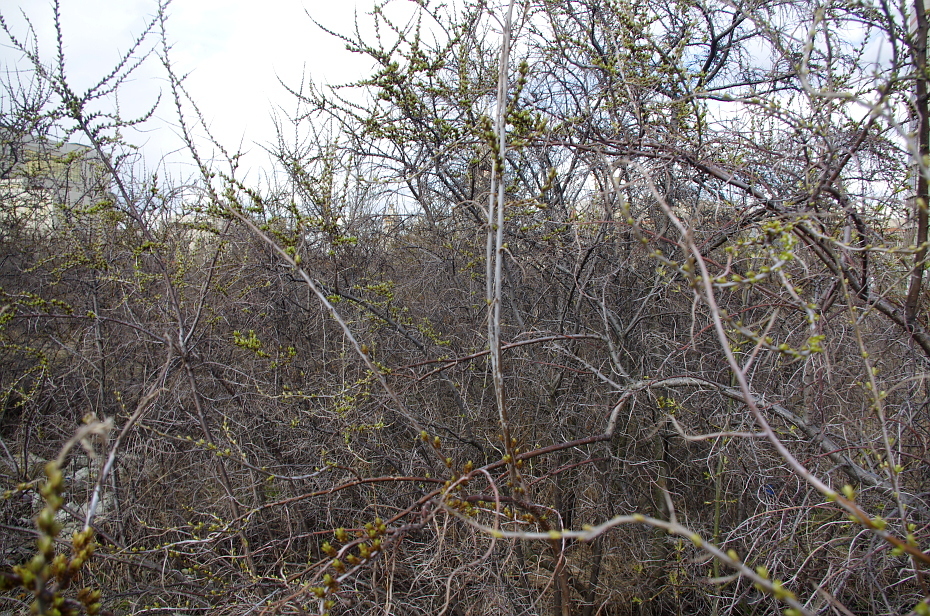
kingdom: Plantae
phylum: Tracheophyta
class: Magnoliopsida
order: Rosales
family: Elaeagnaceae
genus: Hippophae
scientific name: Hippophae rhamnoides
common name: Sea-buckthorn
